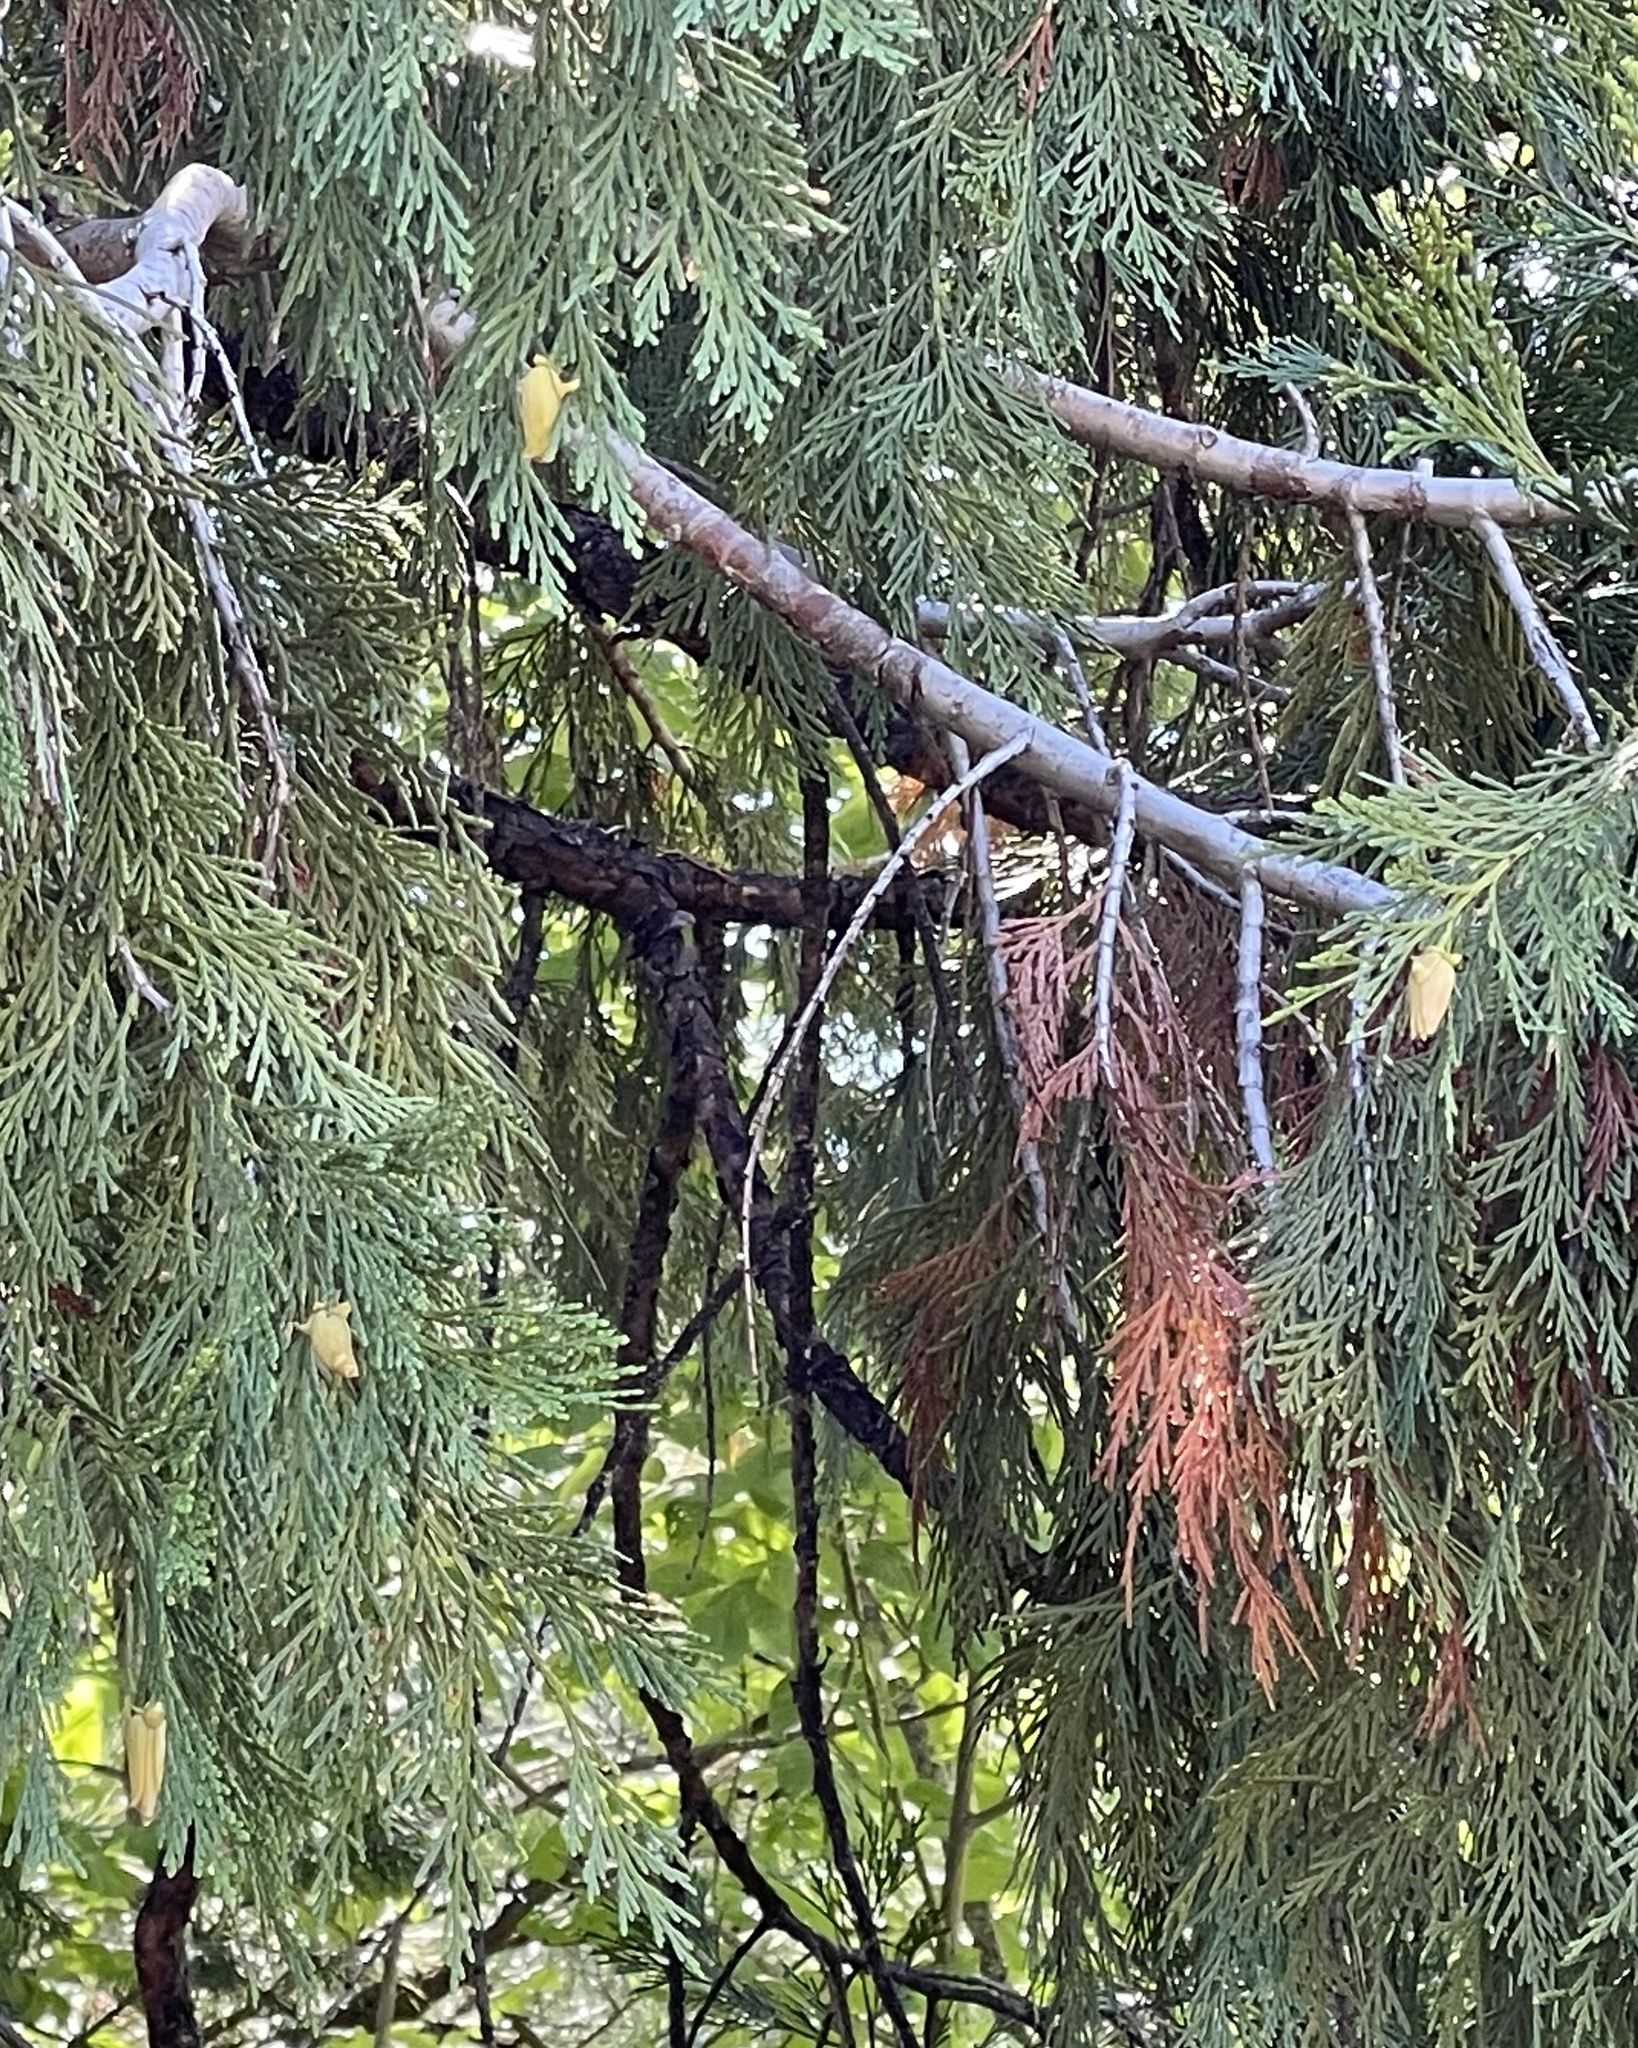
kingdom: Plantae
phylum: Tracheophyta
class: Pinopsida
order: Pinales
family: Cupressaceae
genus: Calocedrus
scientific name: Calocedrus decurrens
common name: Californian incense-cedar
